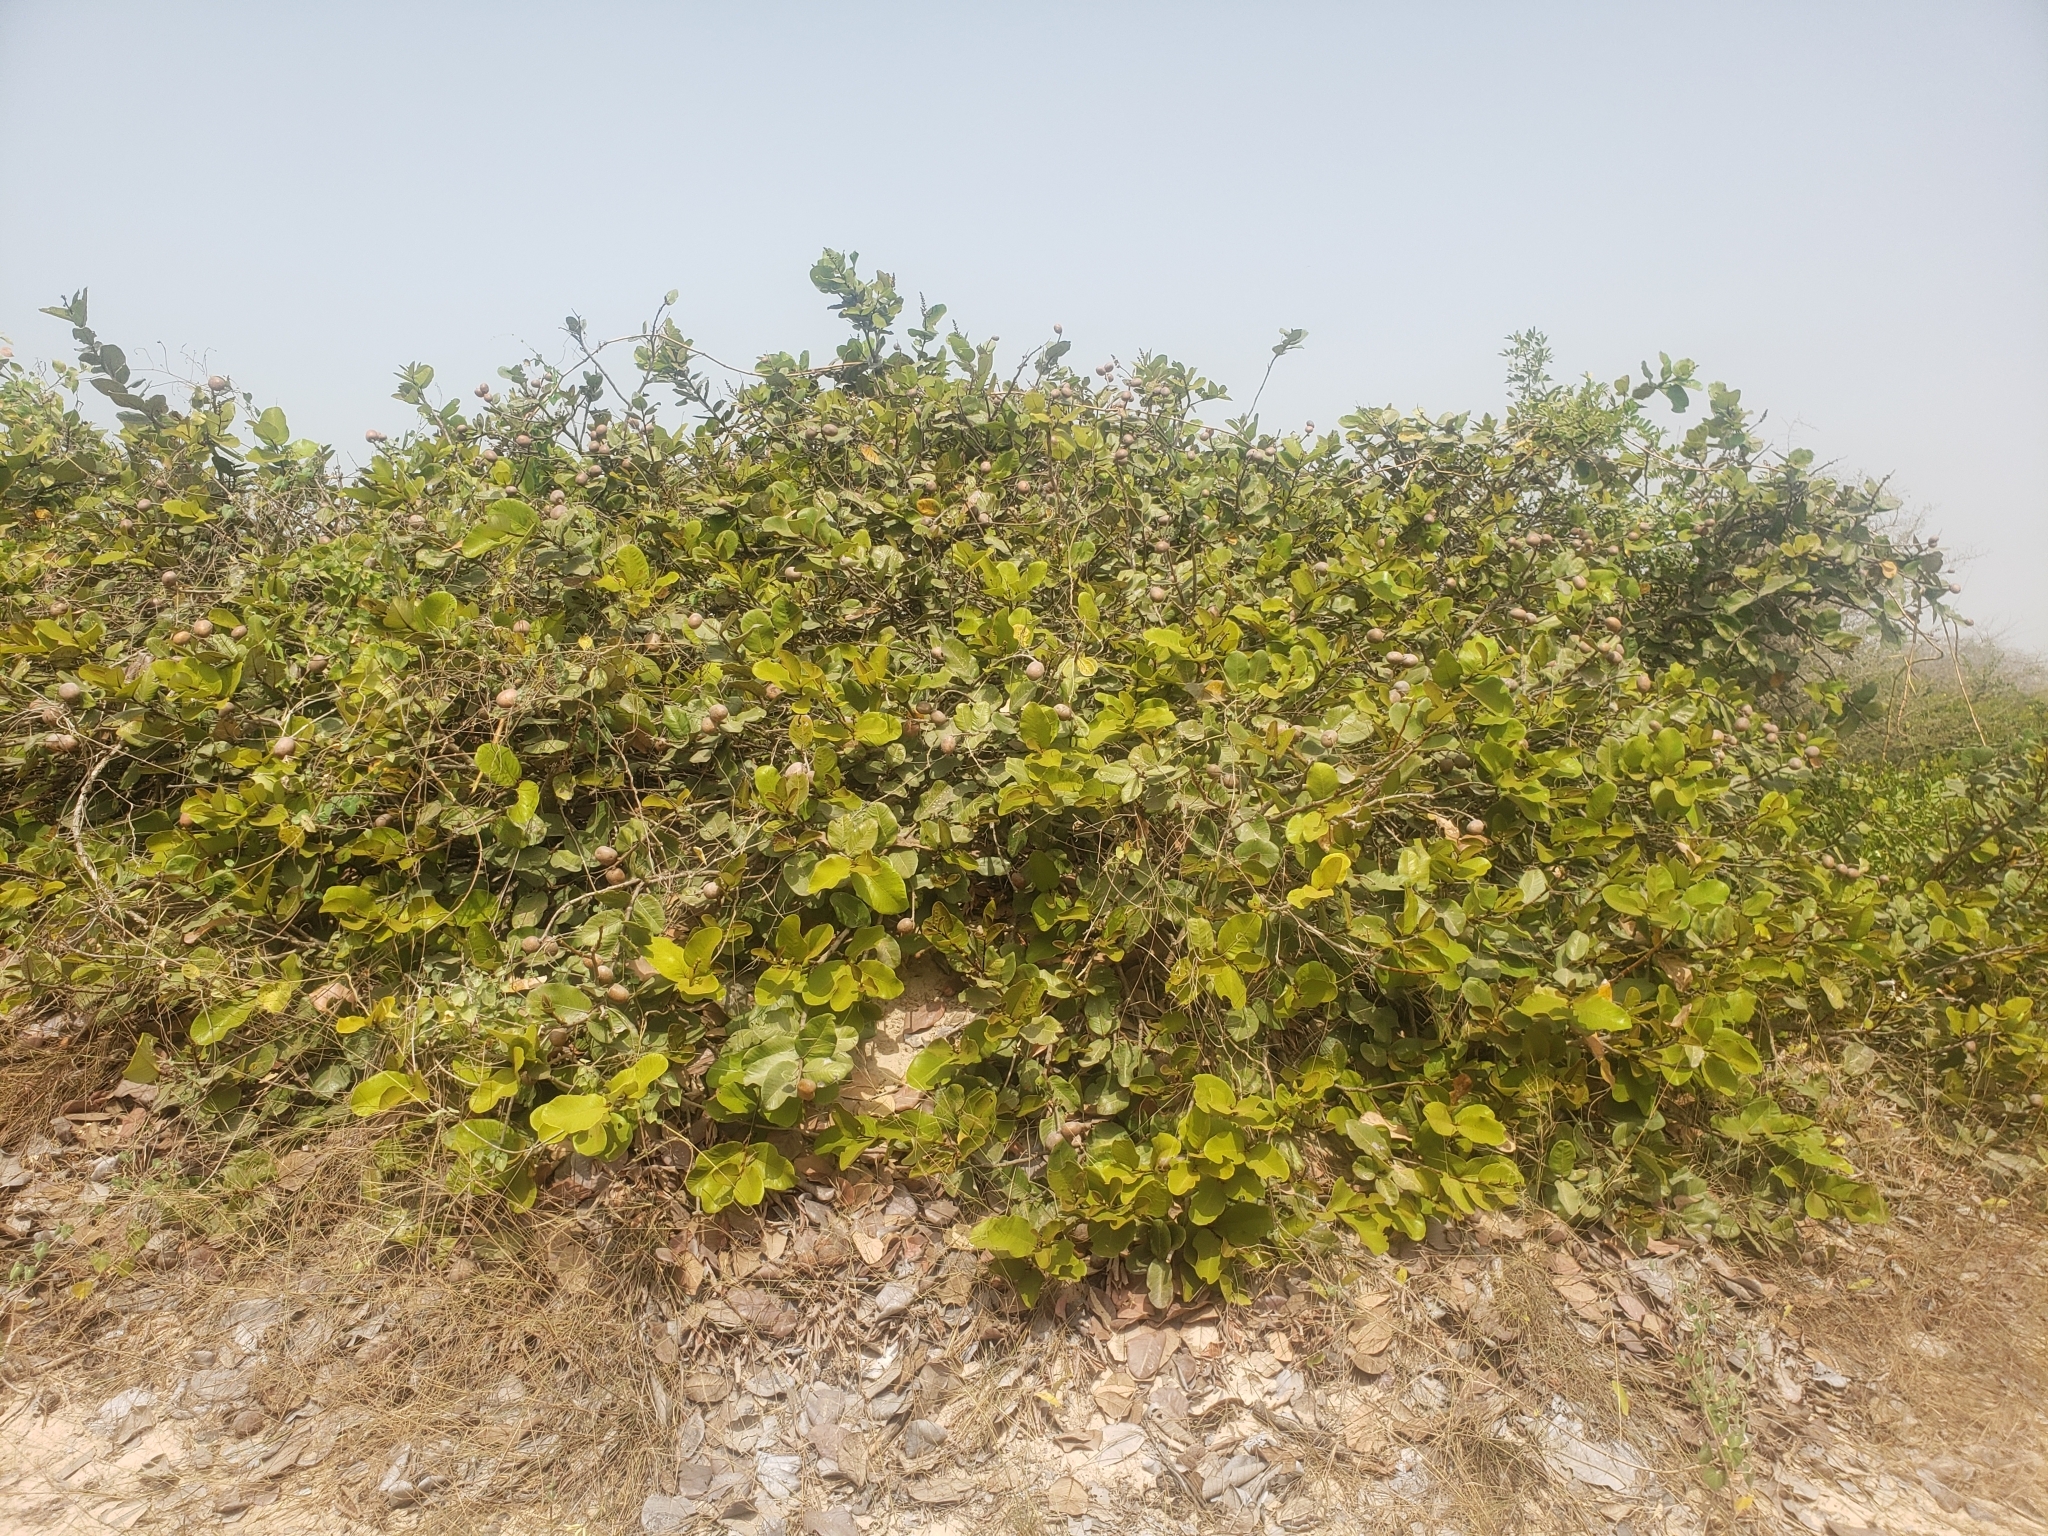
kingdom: Plantae
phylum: Tracheophyta
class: Magnoliopsida
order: Malpighiales
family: Chrysobalanaceae
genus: Neocarya
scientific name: Neocarya macrophylla
